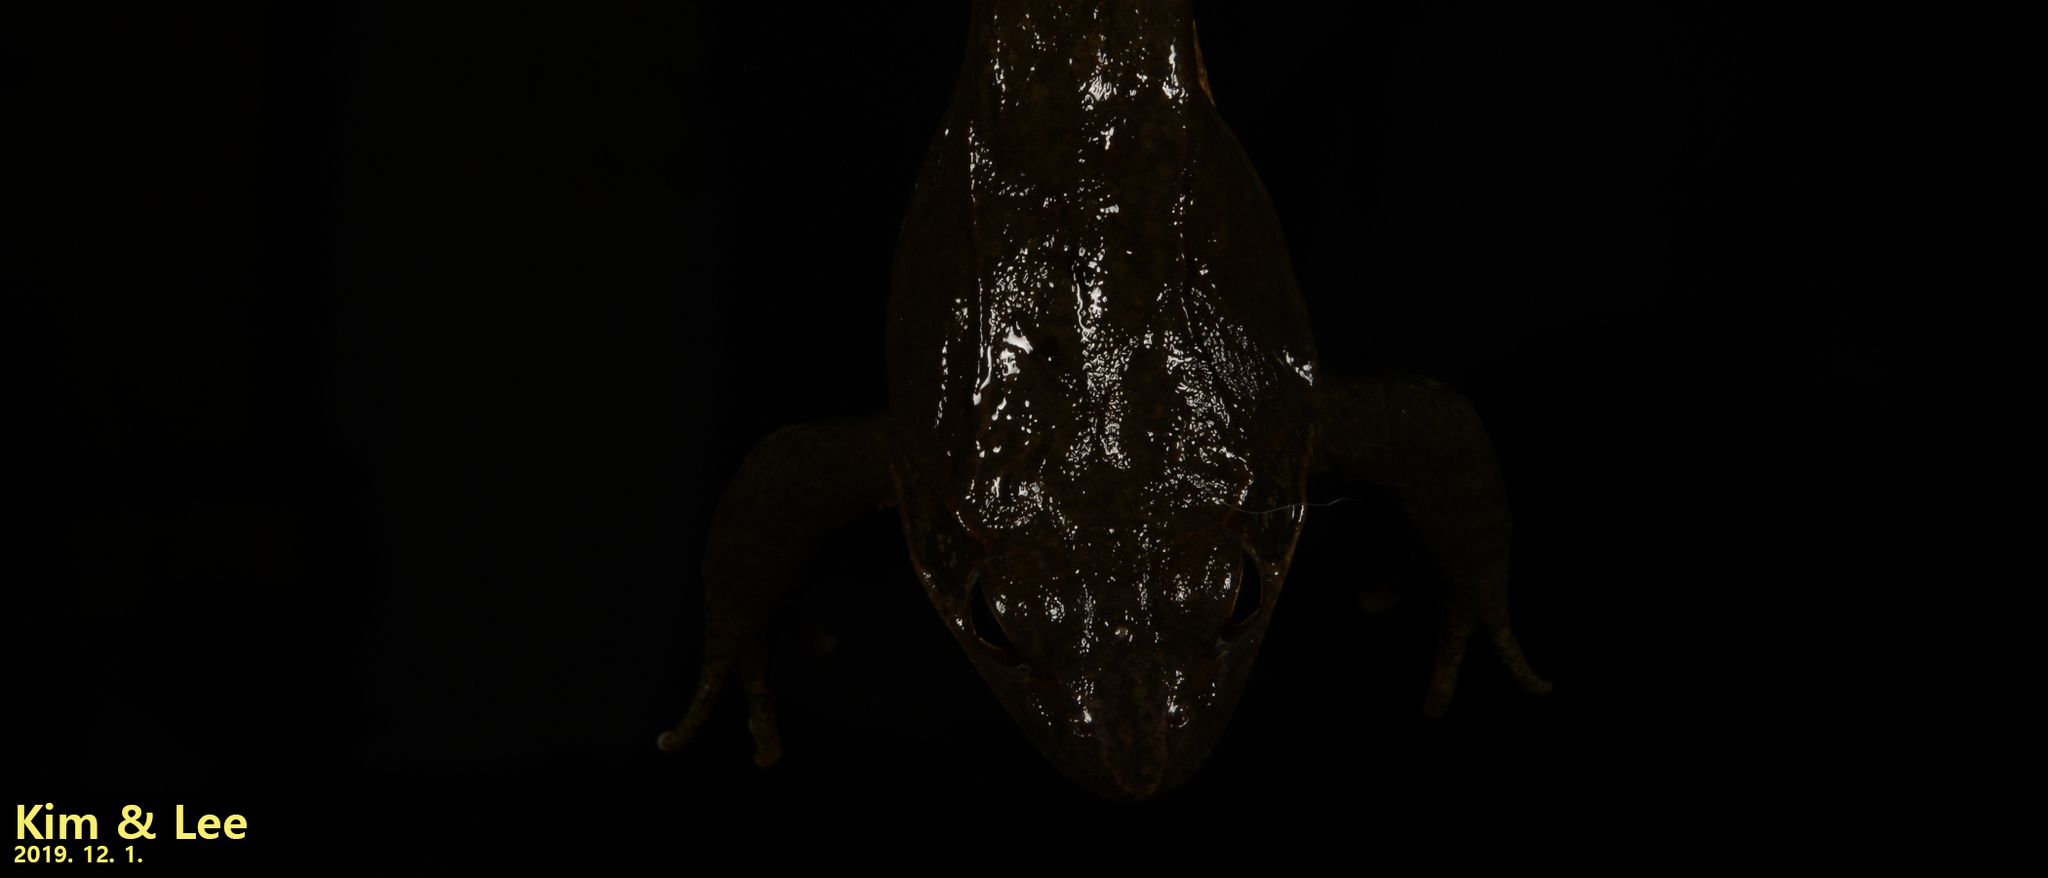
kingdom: Animalia
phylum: Chordata
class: Amphibia
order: Anura
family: Ranidae
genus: Rana
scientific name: Rana dybowskii
